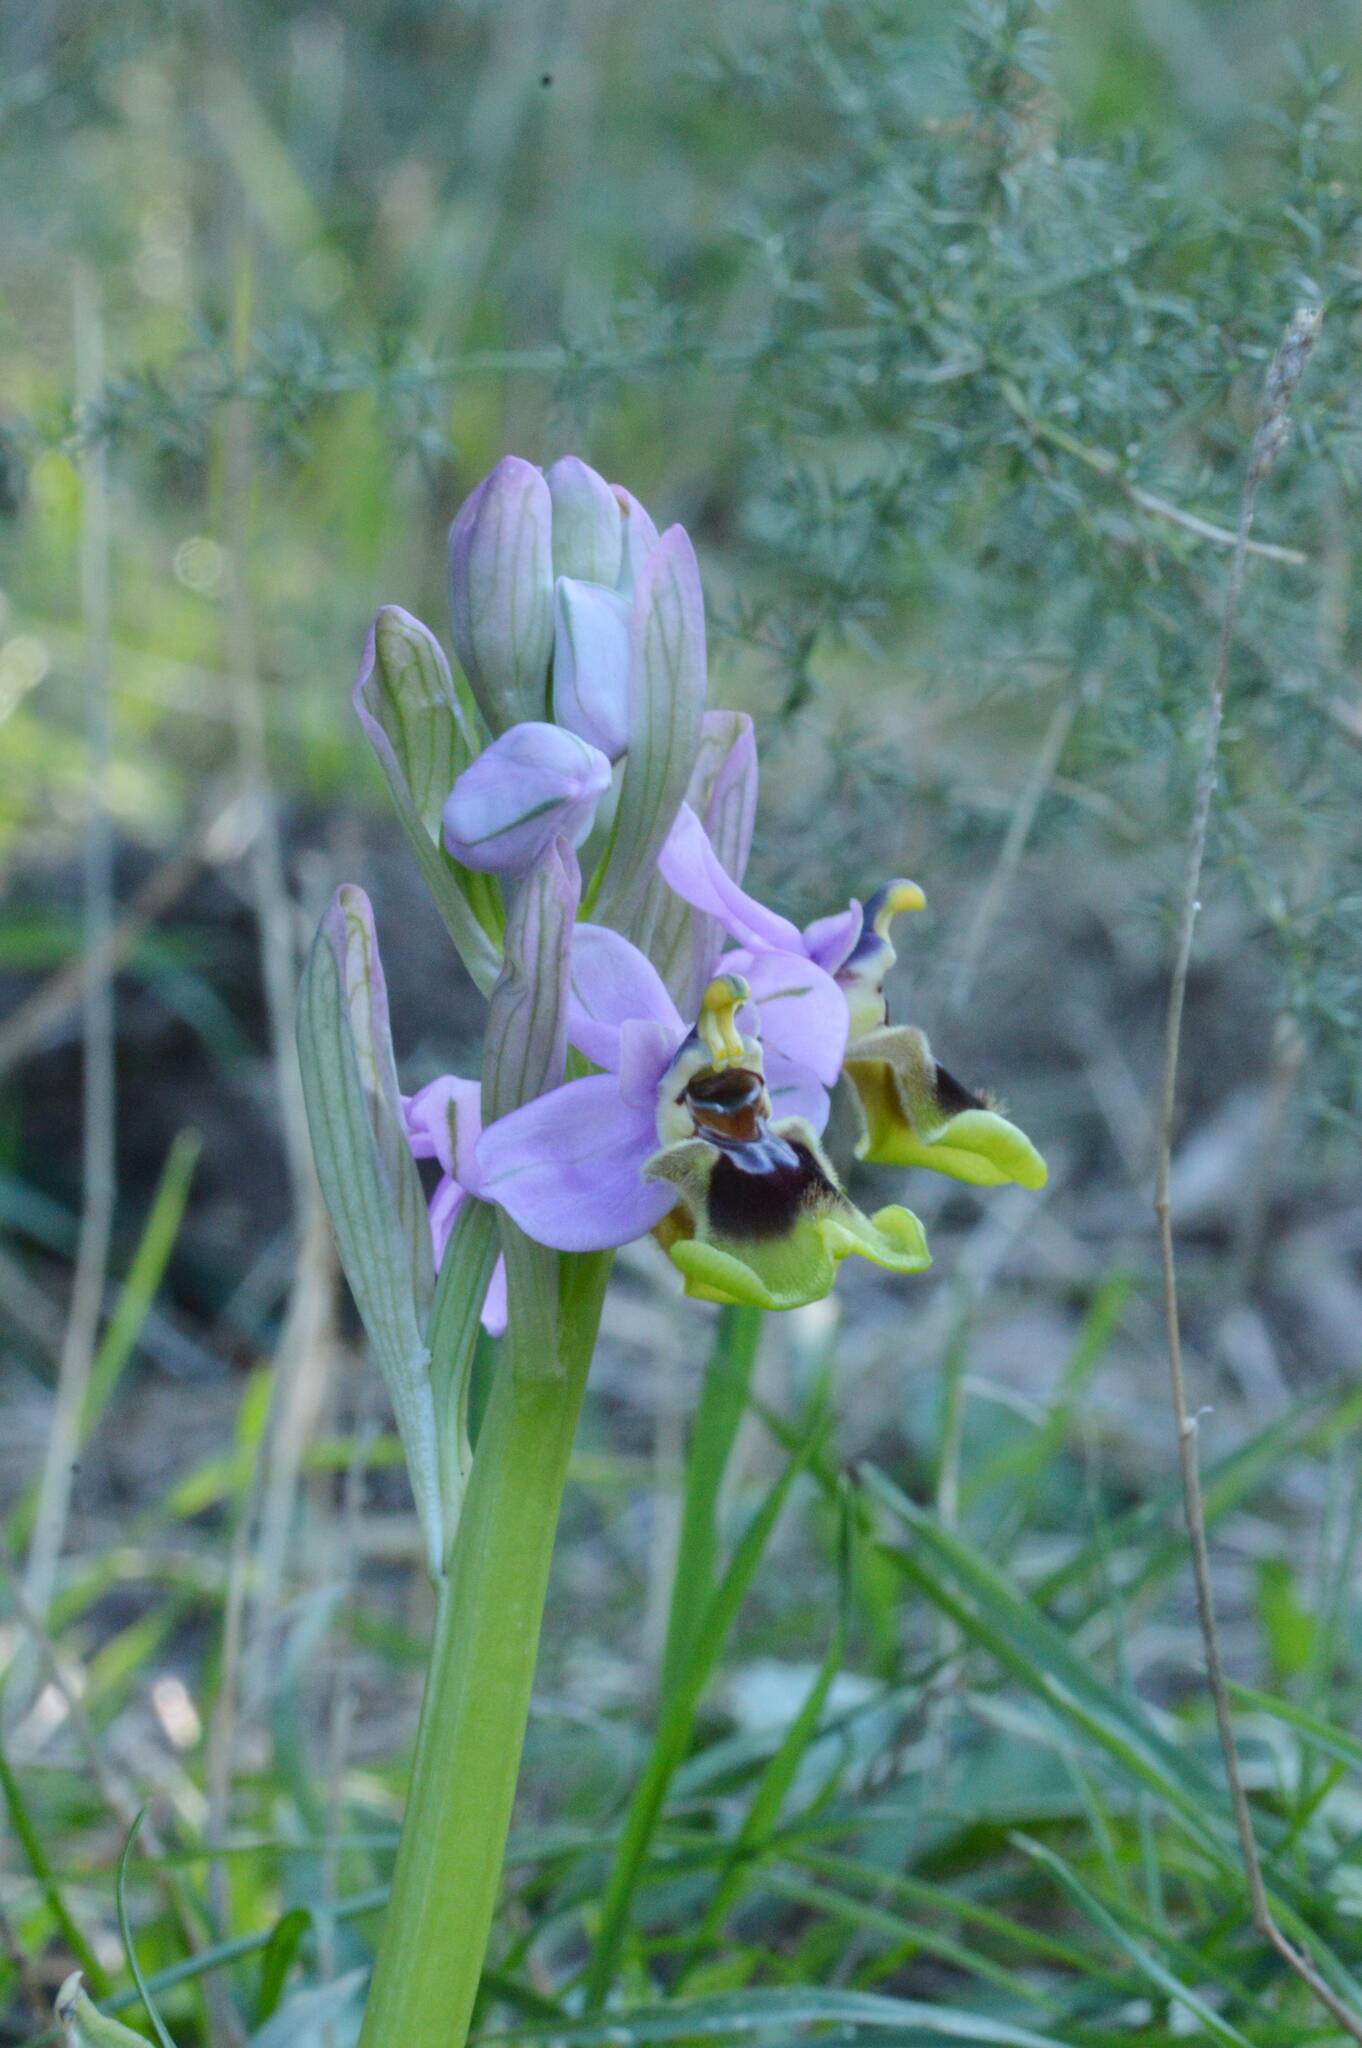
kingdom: Plantae
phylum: Tracheophyta
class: Liliopsida
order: Asparagales
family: Orchidaceae
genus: Ophrys
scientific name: Ophrys tenthredinifera
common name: Sawfly orchid
